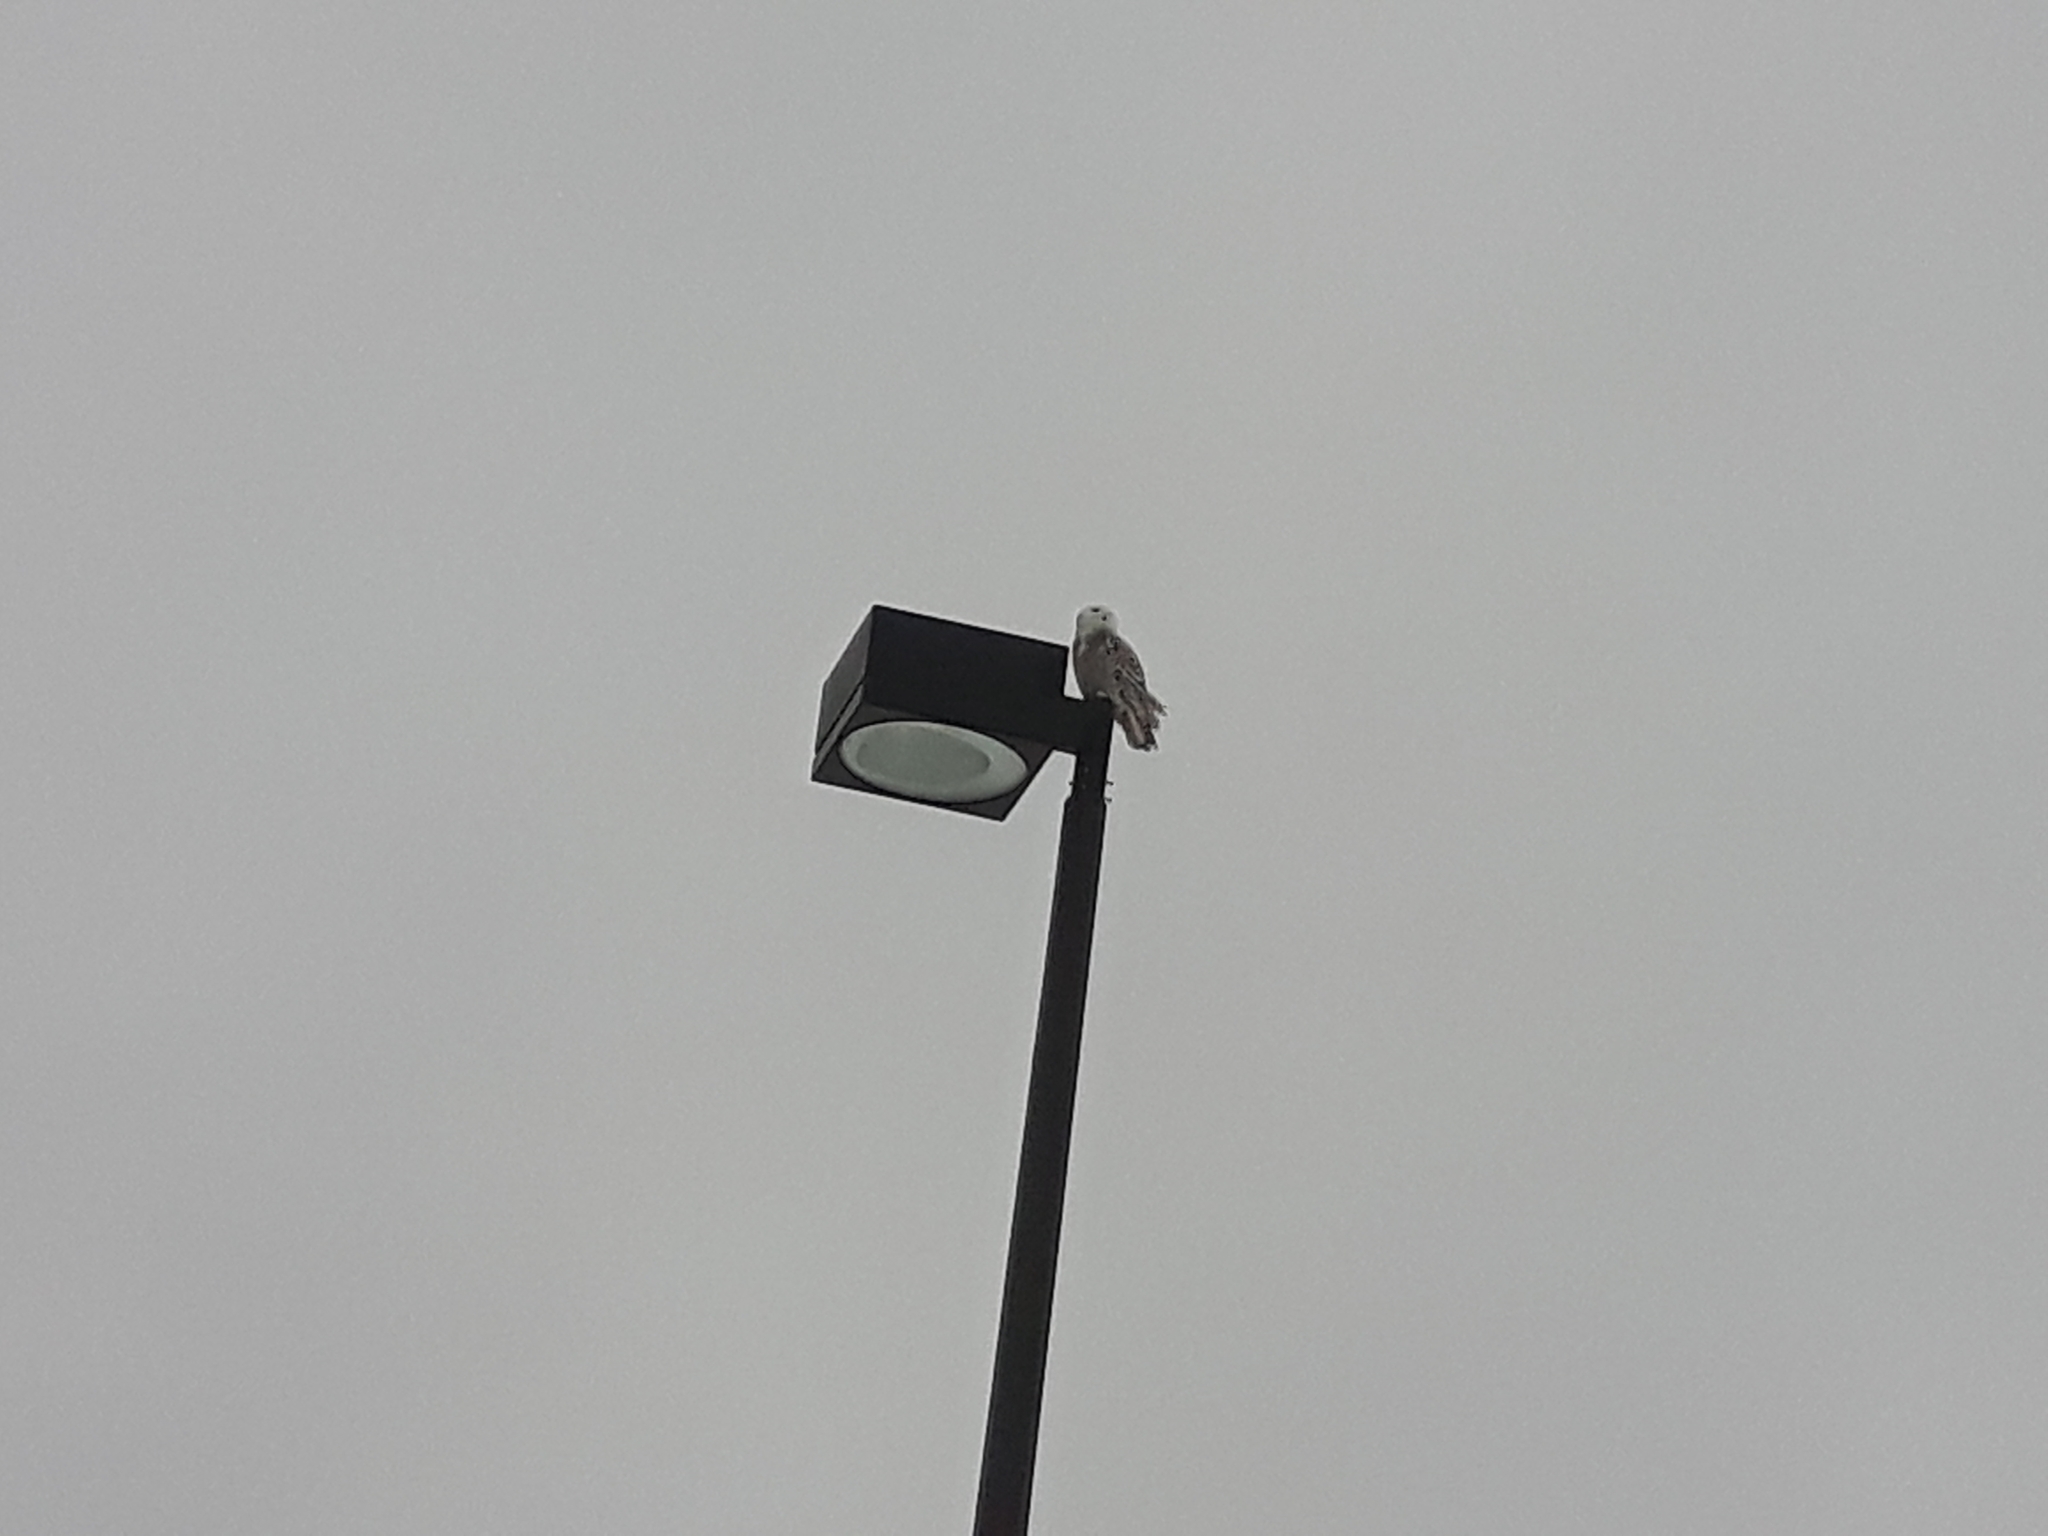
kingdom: Animalia
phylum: Chordata
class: Aves
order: Strigiformes
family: Strigidae
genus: Bubo
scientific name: Bubo scandiacus
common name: Snowy owl
